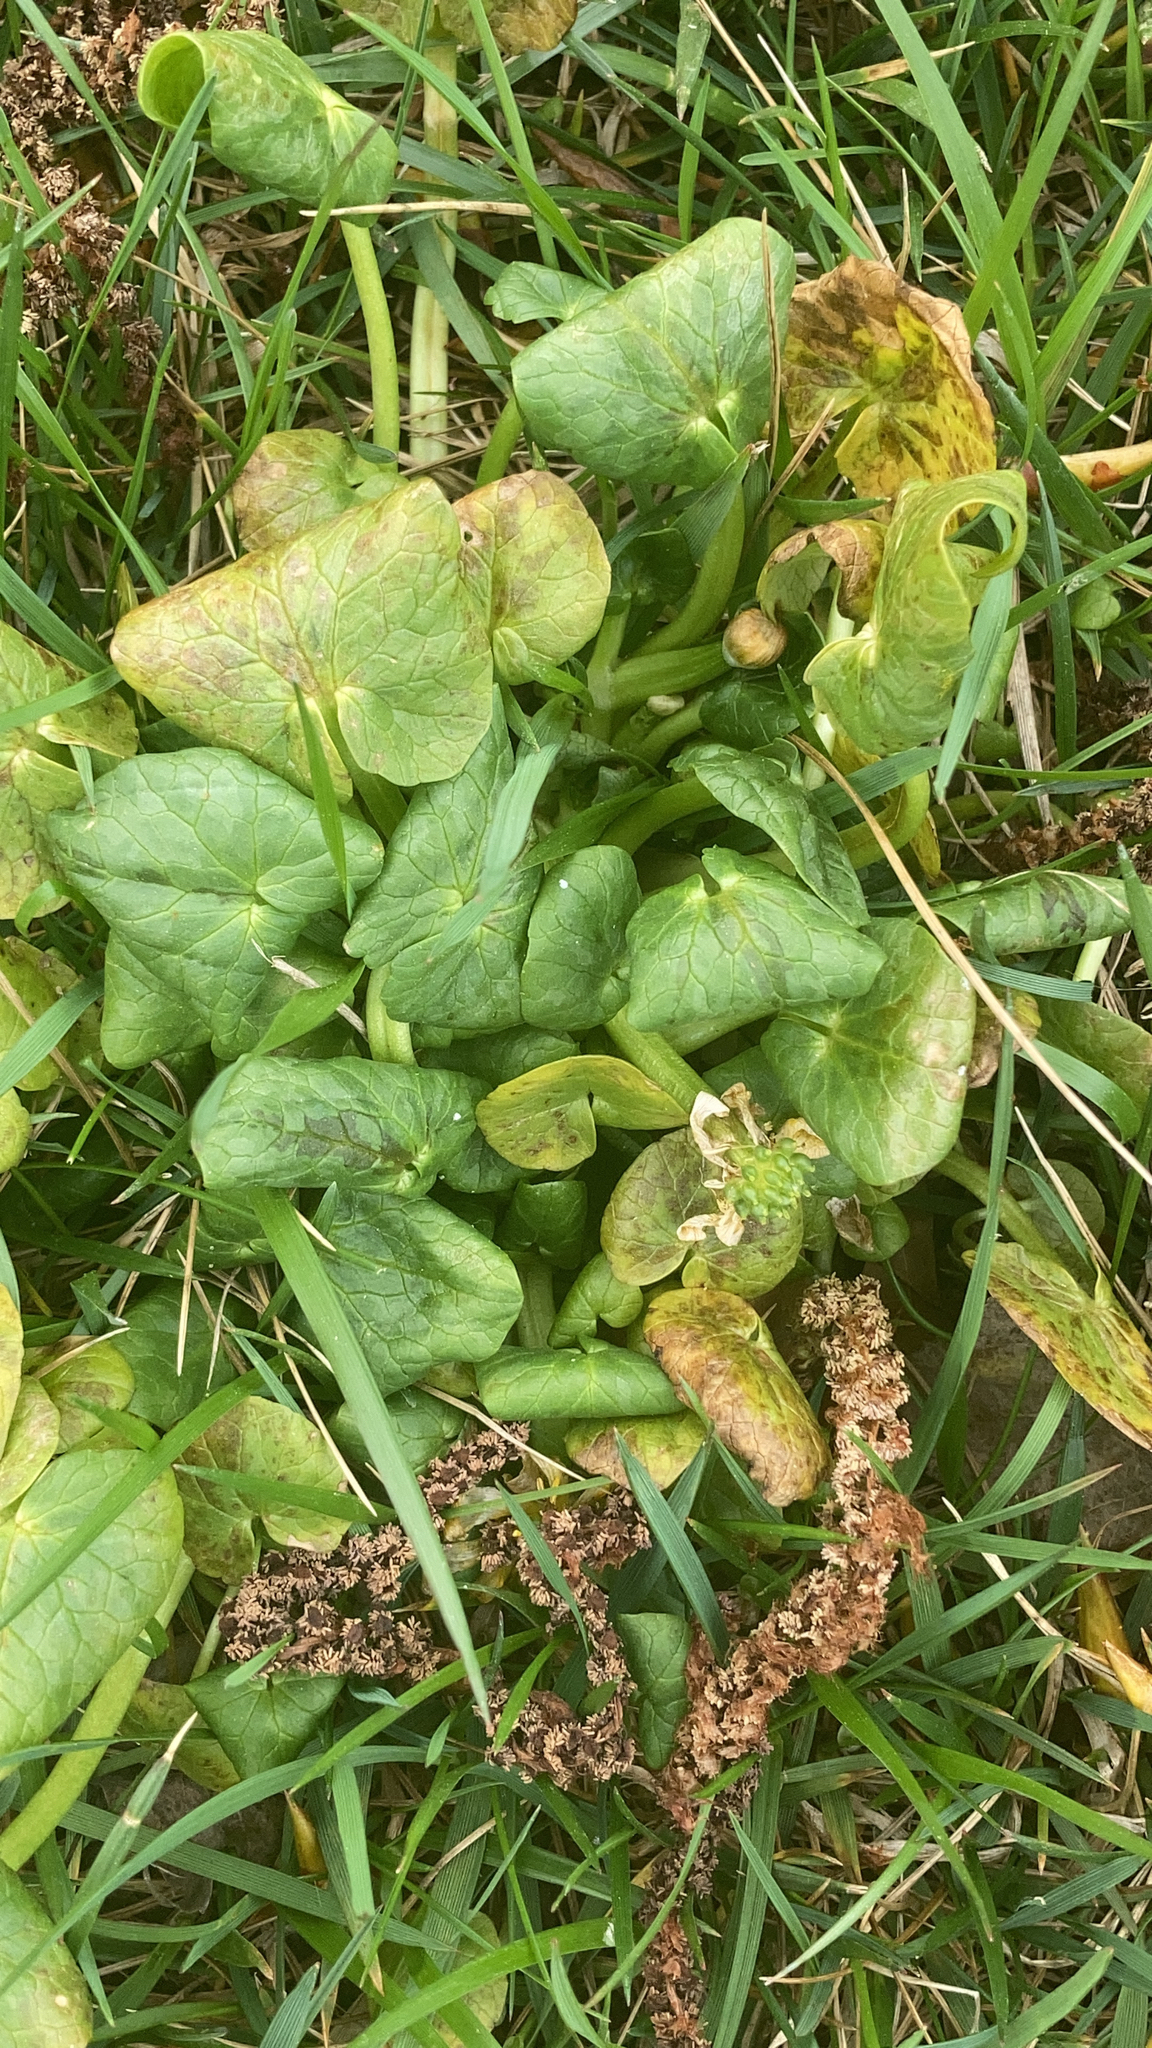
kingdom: Plantae
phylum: Tracheophyta
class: Magnoliopsida
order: Ranunculales
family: Ranunculaceae
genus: Ficaria
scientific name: Ficaria verna
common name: Lesser celandine
